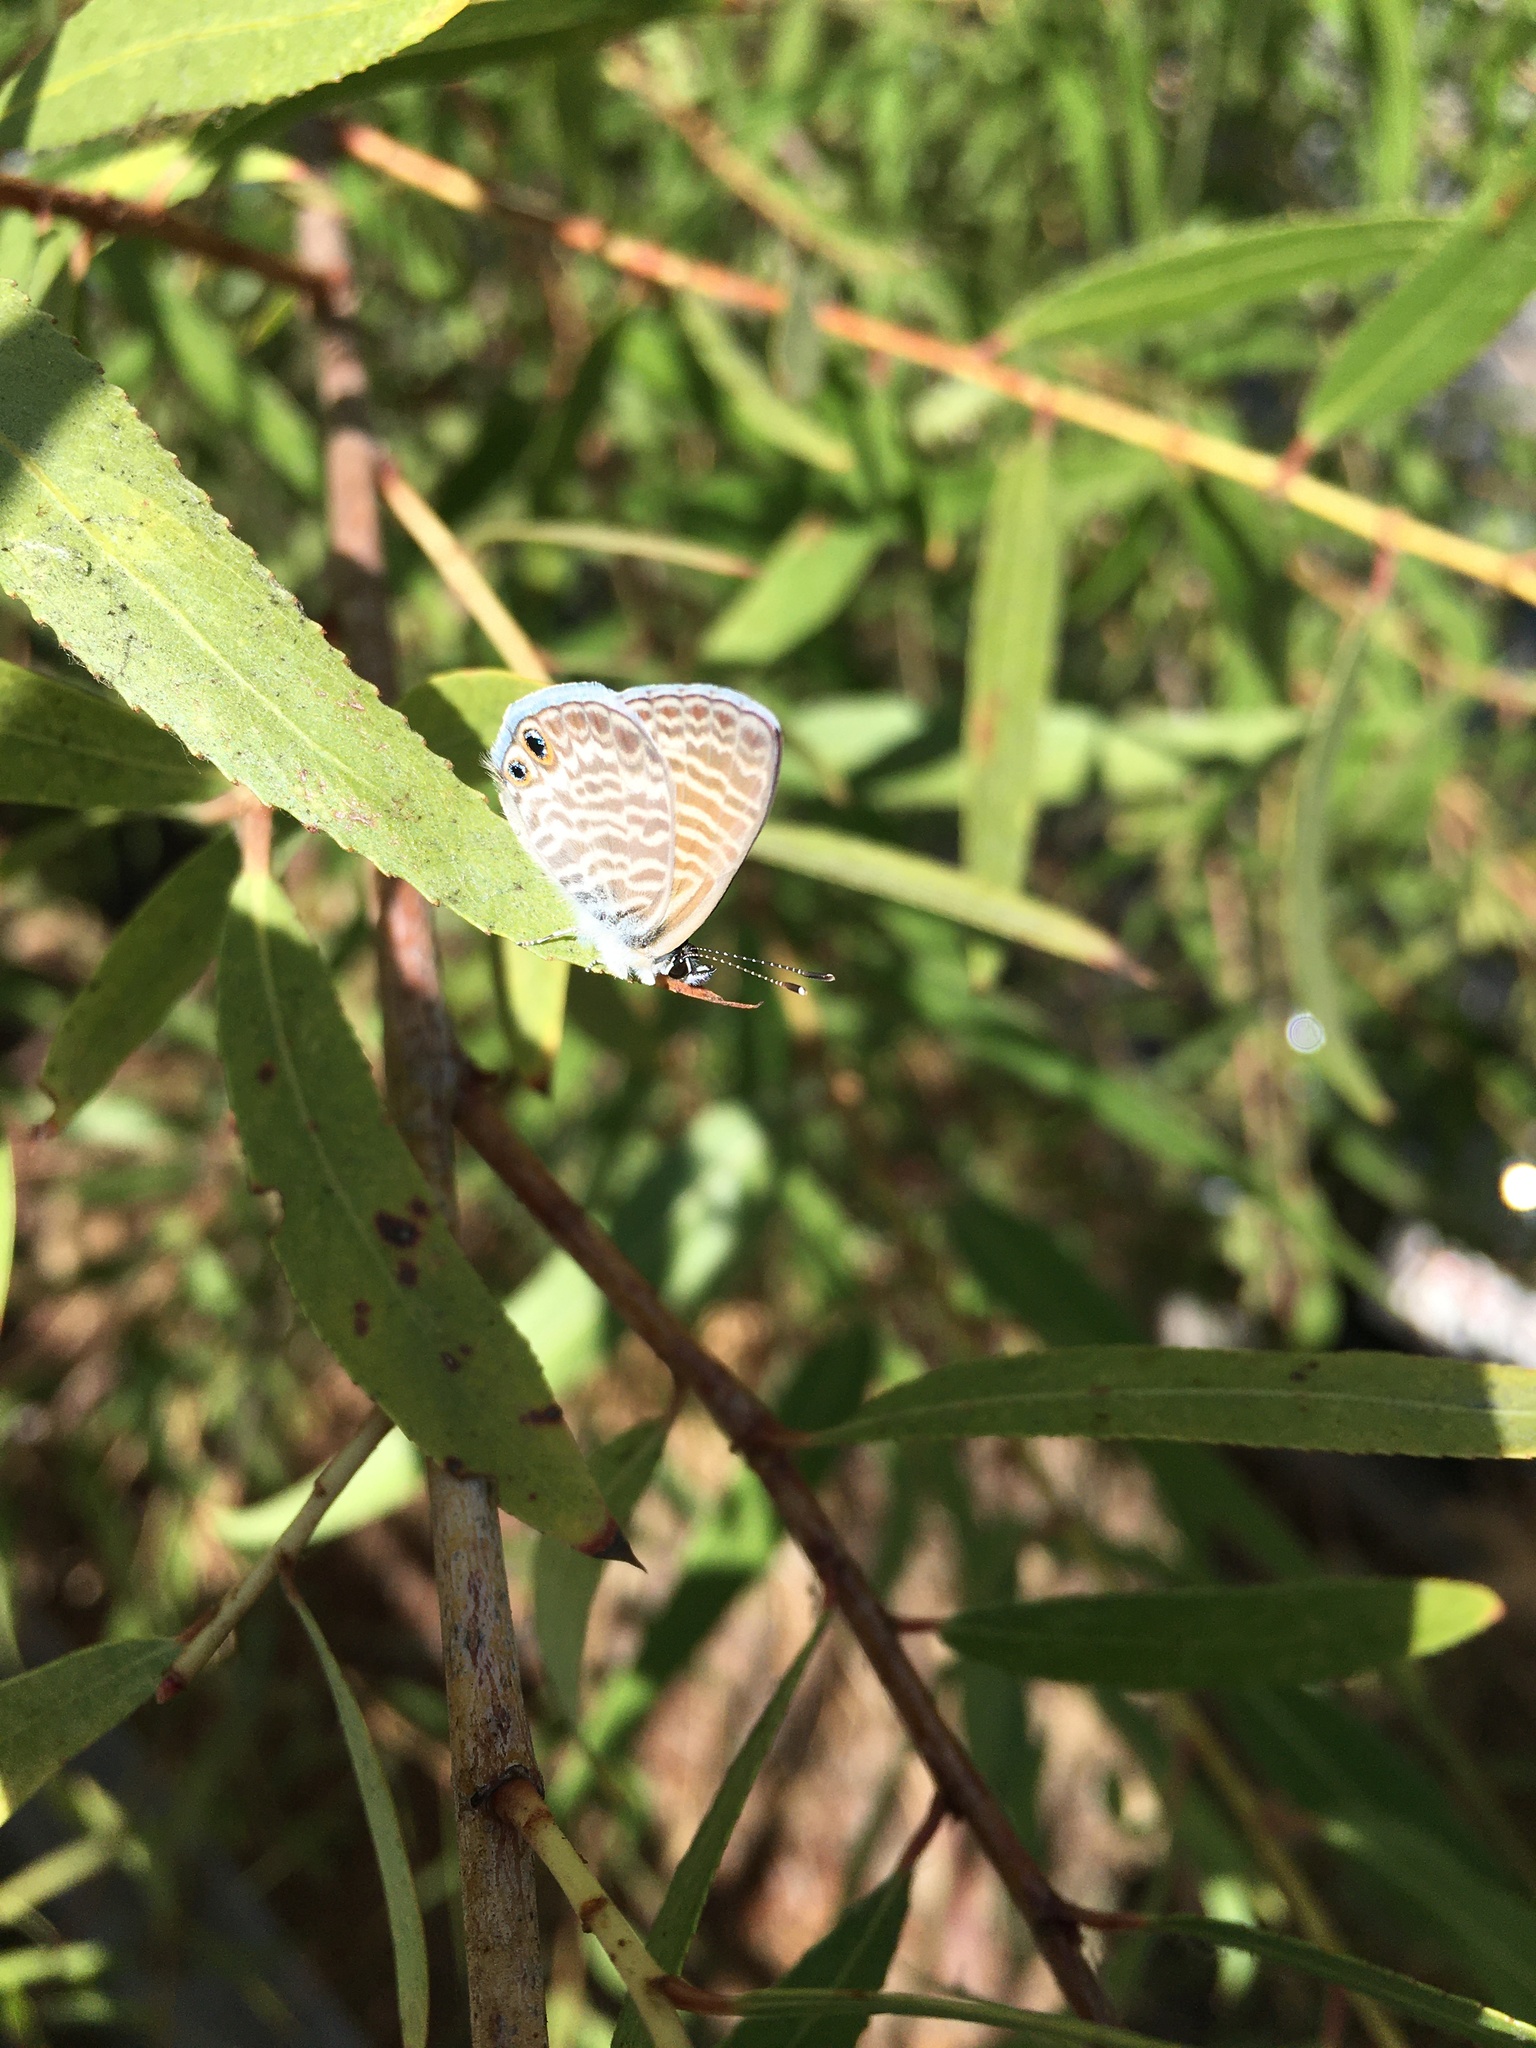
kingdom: Animalia
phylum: Arthropoda
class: Insecta
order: Lepidoptera
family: Lycaenidae
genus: Leptotes
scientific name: Leptotes marina
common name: Marine blue
